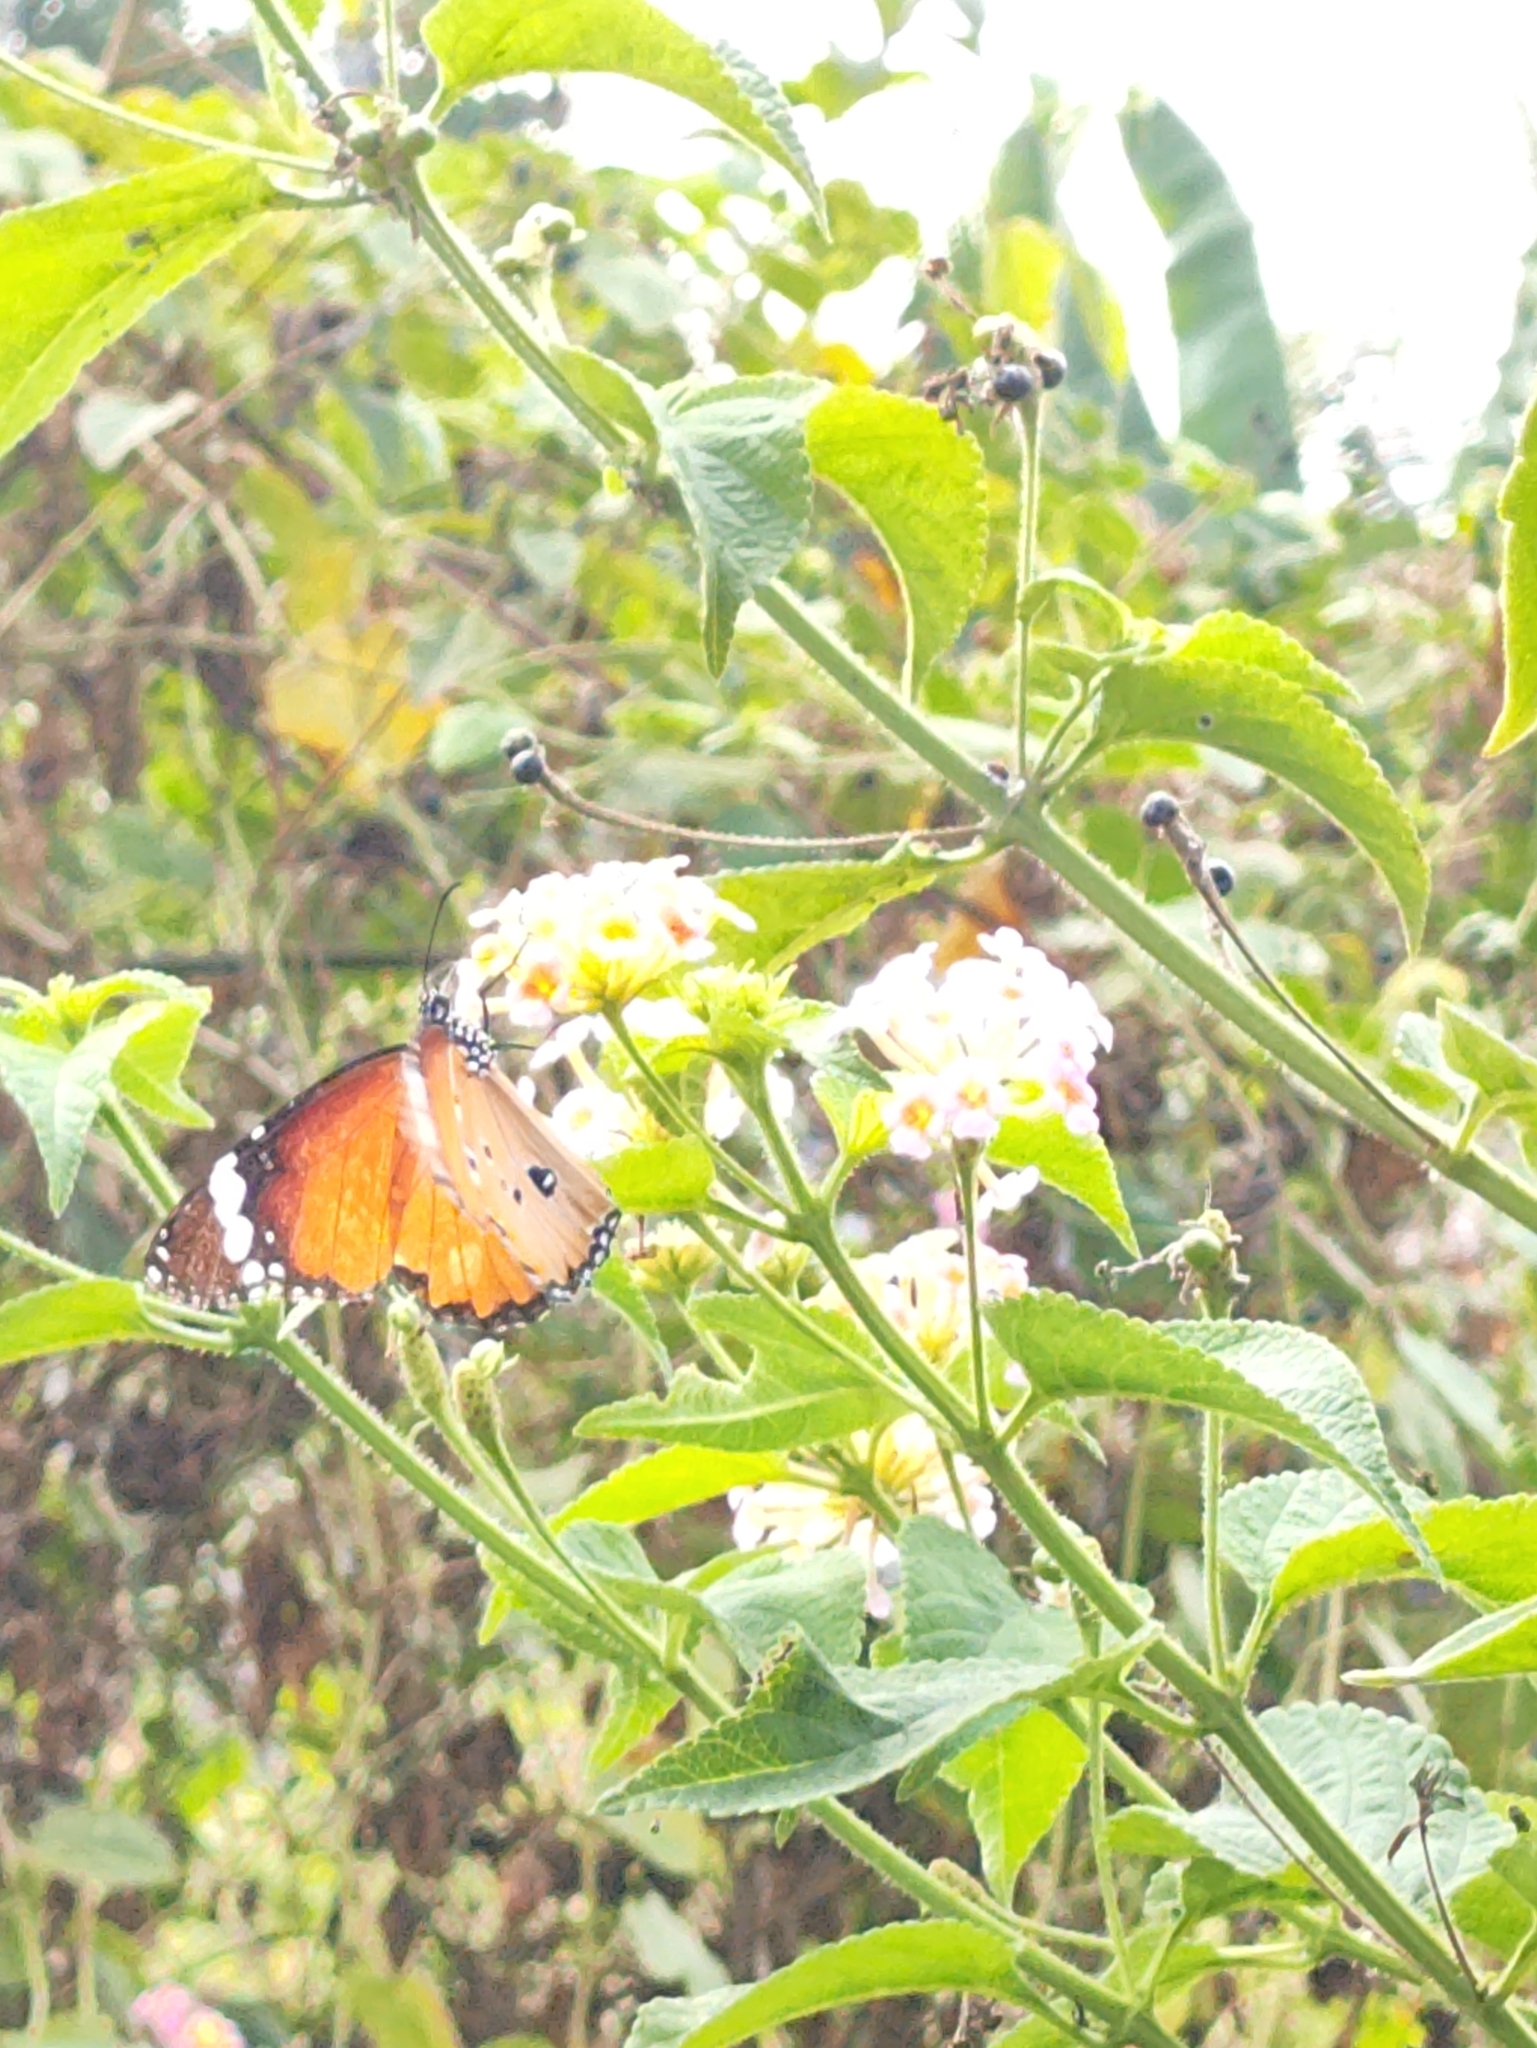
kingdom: Animalia
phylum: Arthropoda
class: Insecta
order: Lepidoptera
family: Nymphalidae
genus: Danaus
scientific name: Danaus chrysippus
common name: Plain tiger
